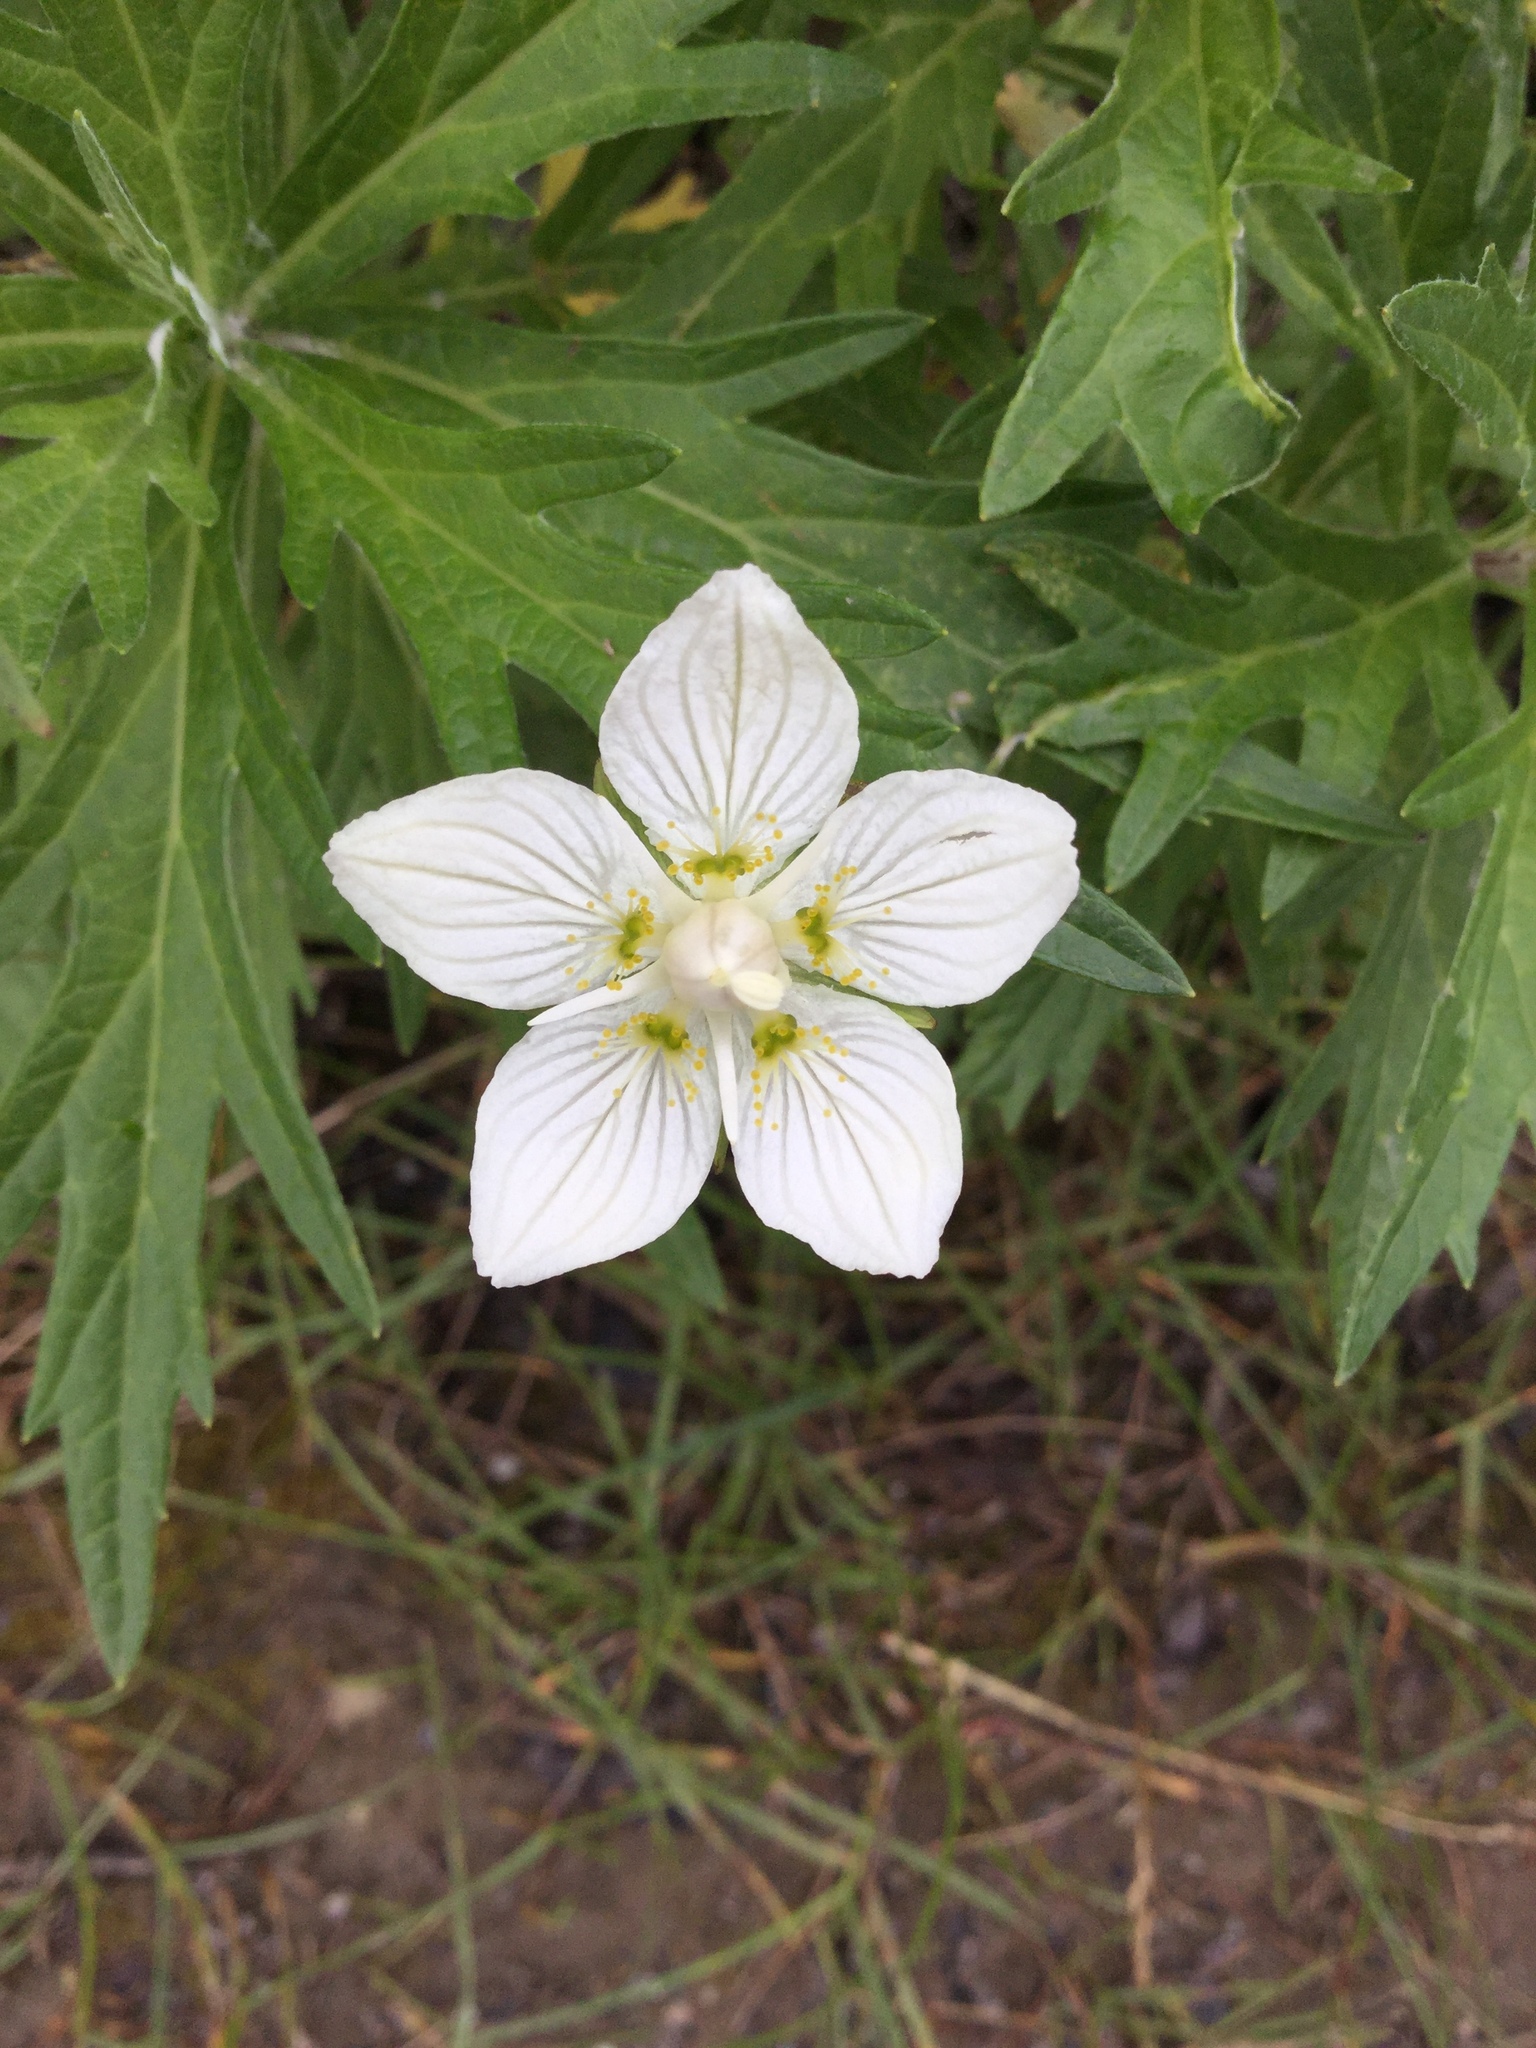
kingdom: Plantae
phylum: Tracheophyta
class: Magnoliopsida
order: Celastrales
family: Parnassiaceae
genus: Parnassia
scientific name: Parnassia palustris
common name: Grass-of-parnassus
